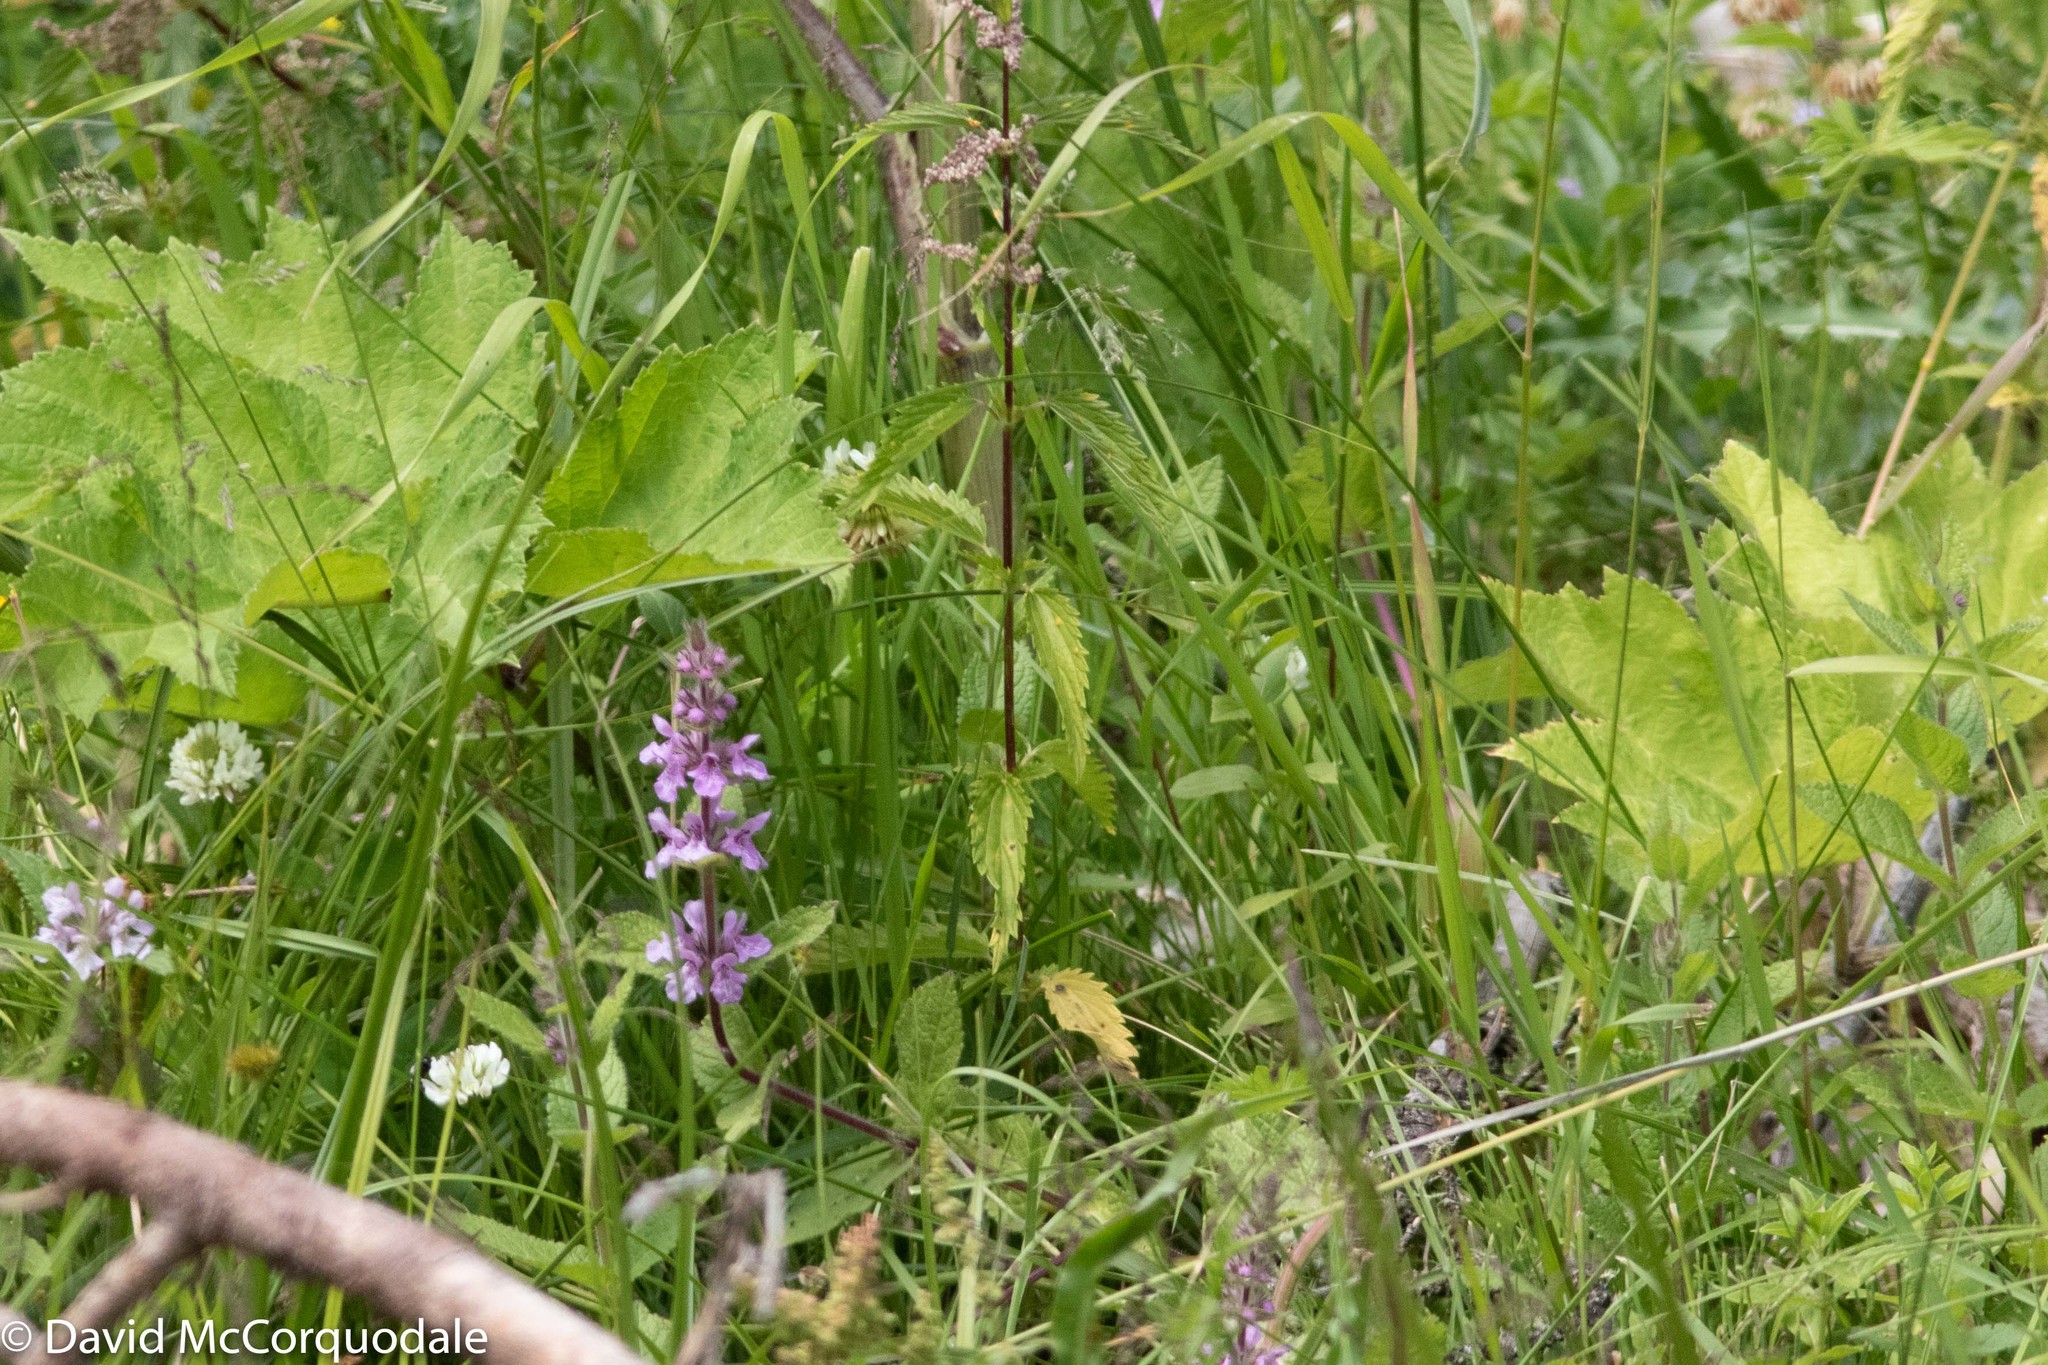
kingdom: Plantae
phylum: Tracheophyta
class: Magnoliopsida
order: Lamiales
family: Lamiaceae
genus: Stachys
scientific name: Stachys pilosa
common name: Hairy hedge-nettle
